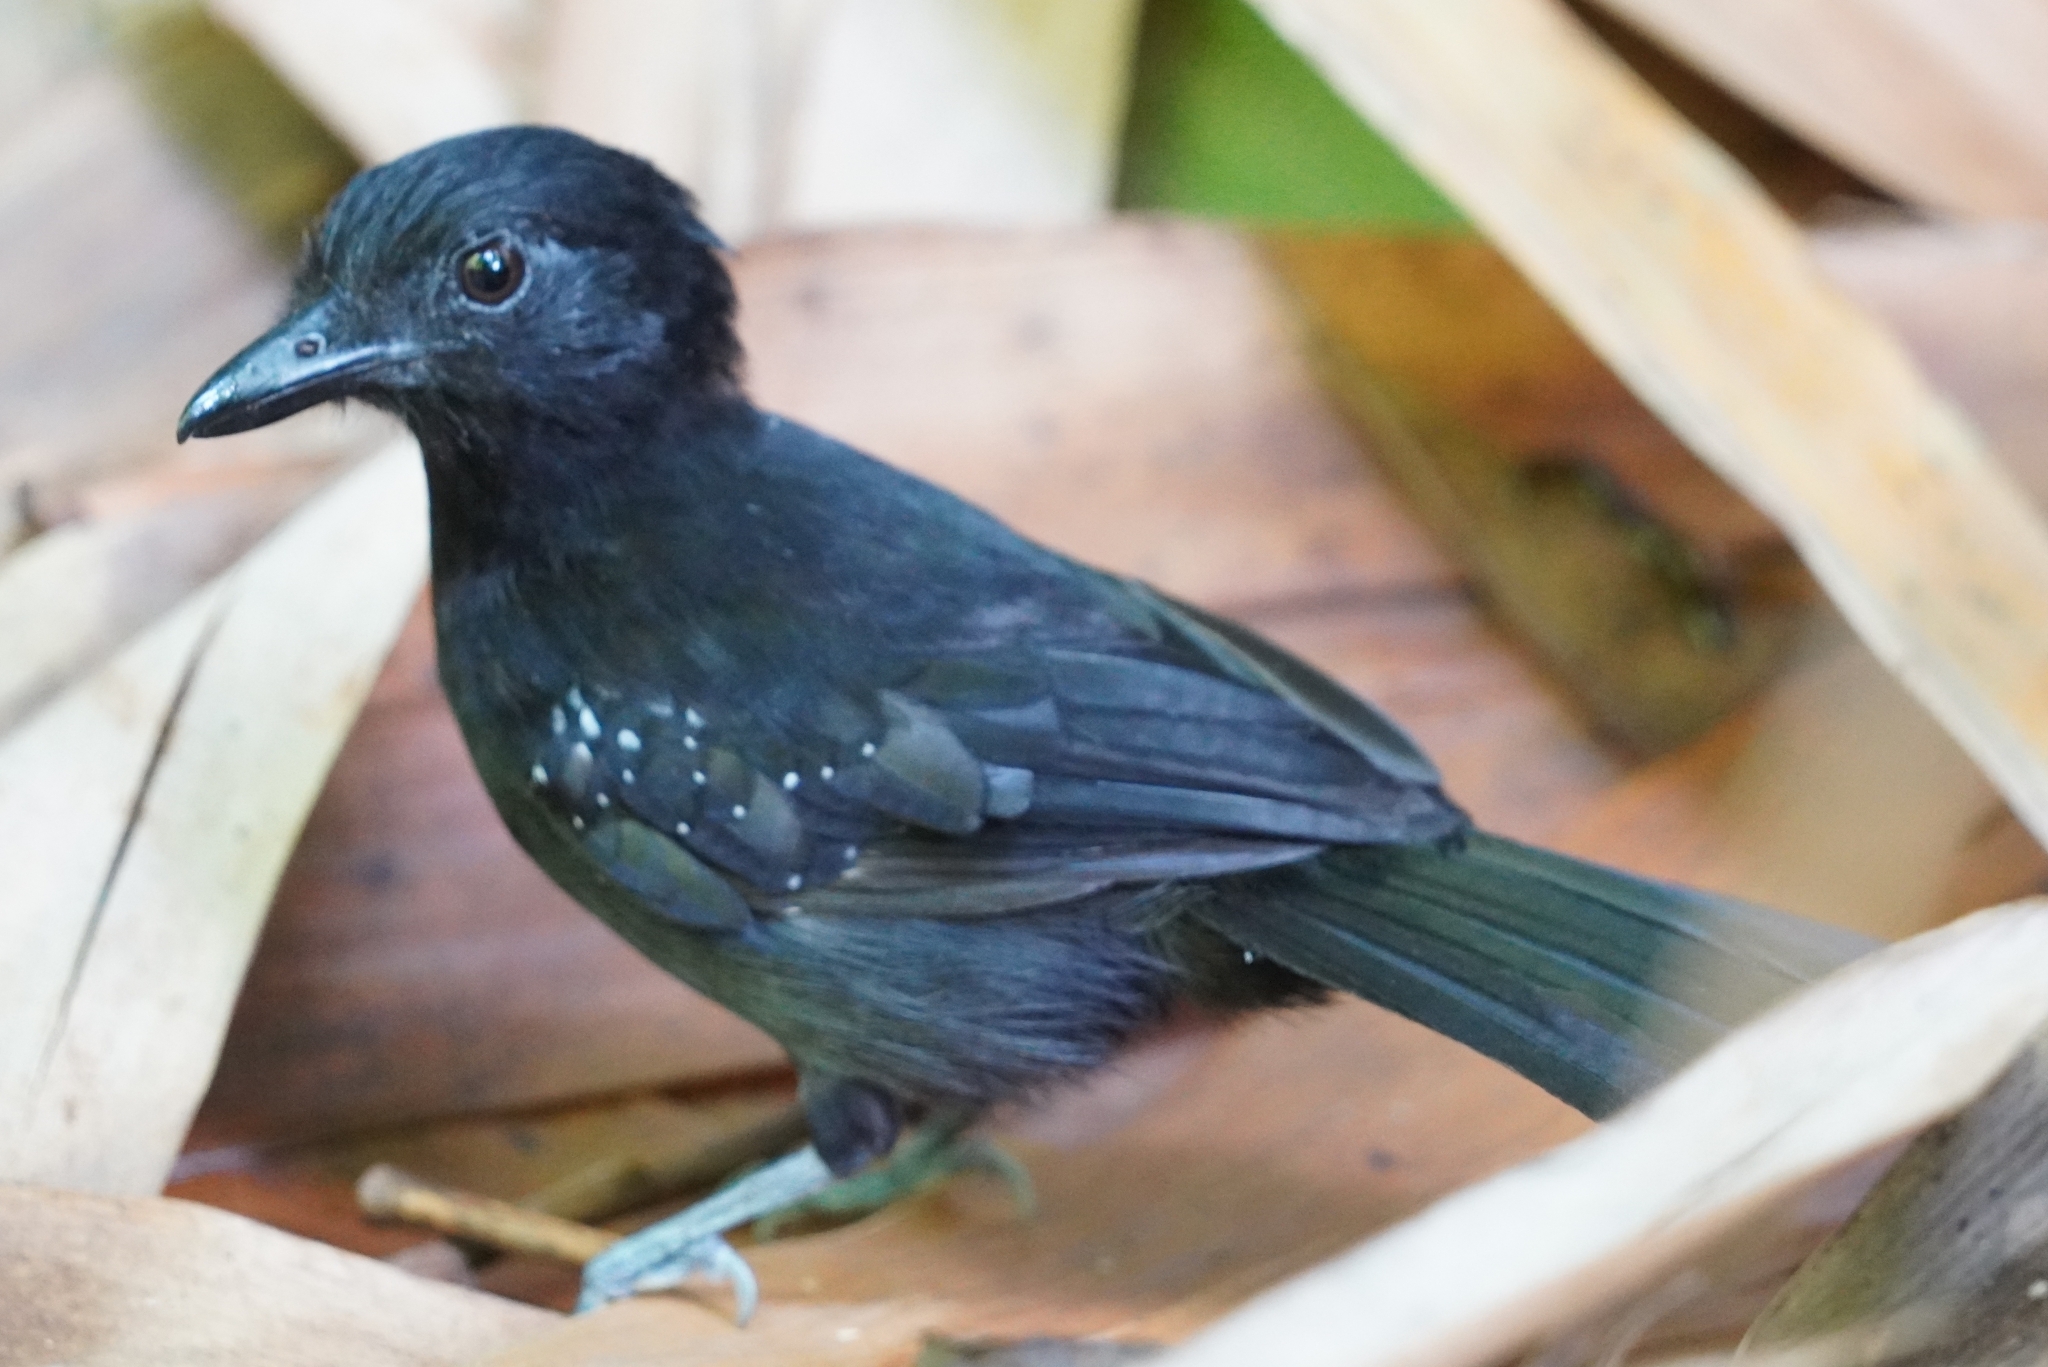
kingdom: Animalia
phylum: Chordata
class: Aves
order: Passeriformes
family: Thamnophilidae
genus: Thamnophilus
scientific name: Thamnophilus bridgesi
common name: Black-hooded antshrike
